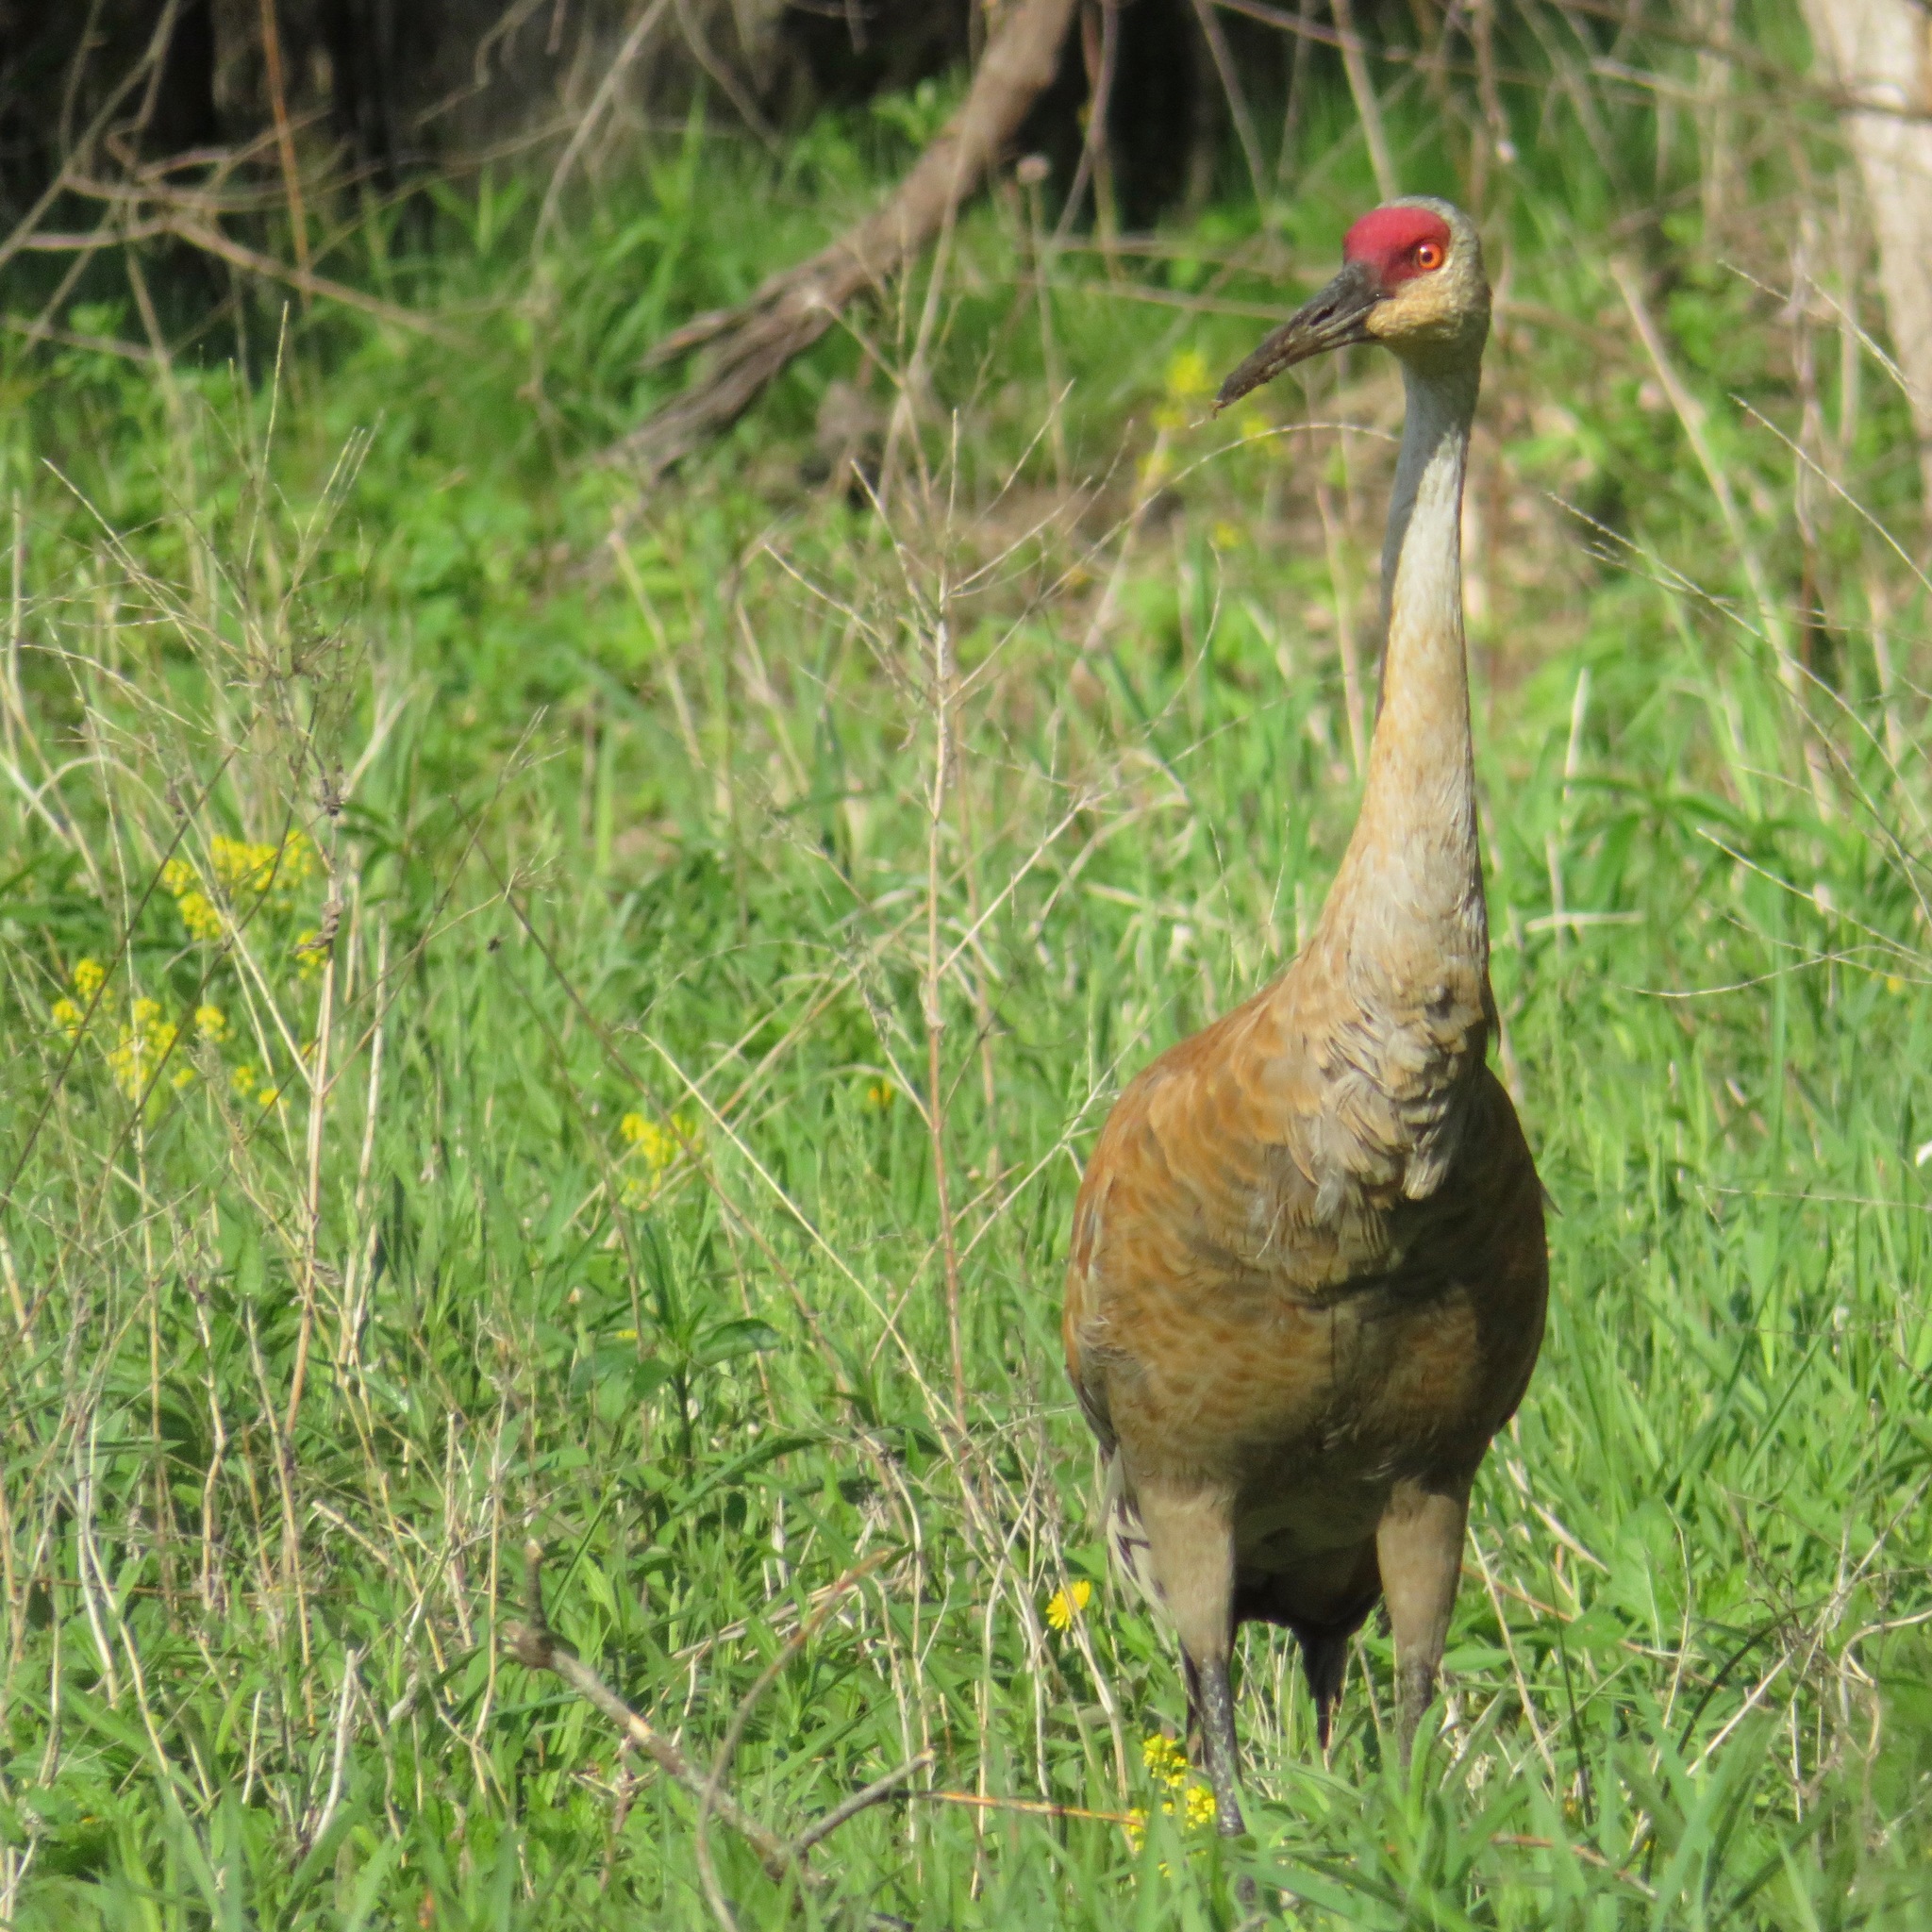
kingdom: Animalia
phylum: Chordata
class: Aves
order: Gruiformes
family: Gruidae
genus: Grus
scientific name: Grus canadensis
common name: Sandhill crane
